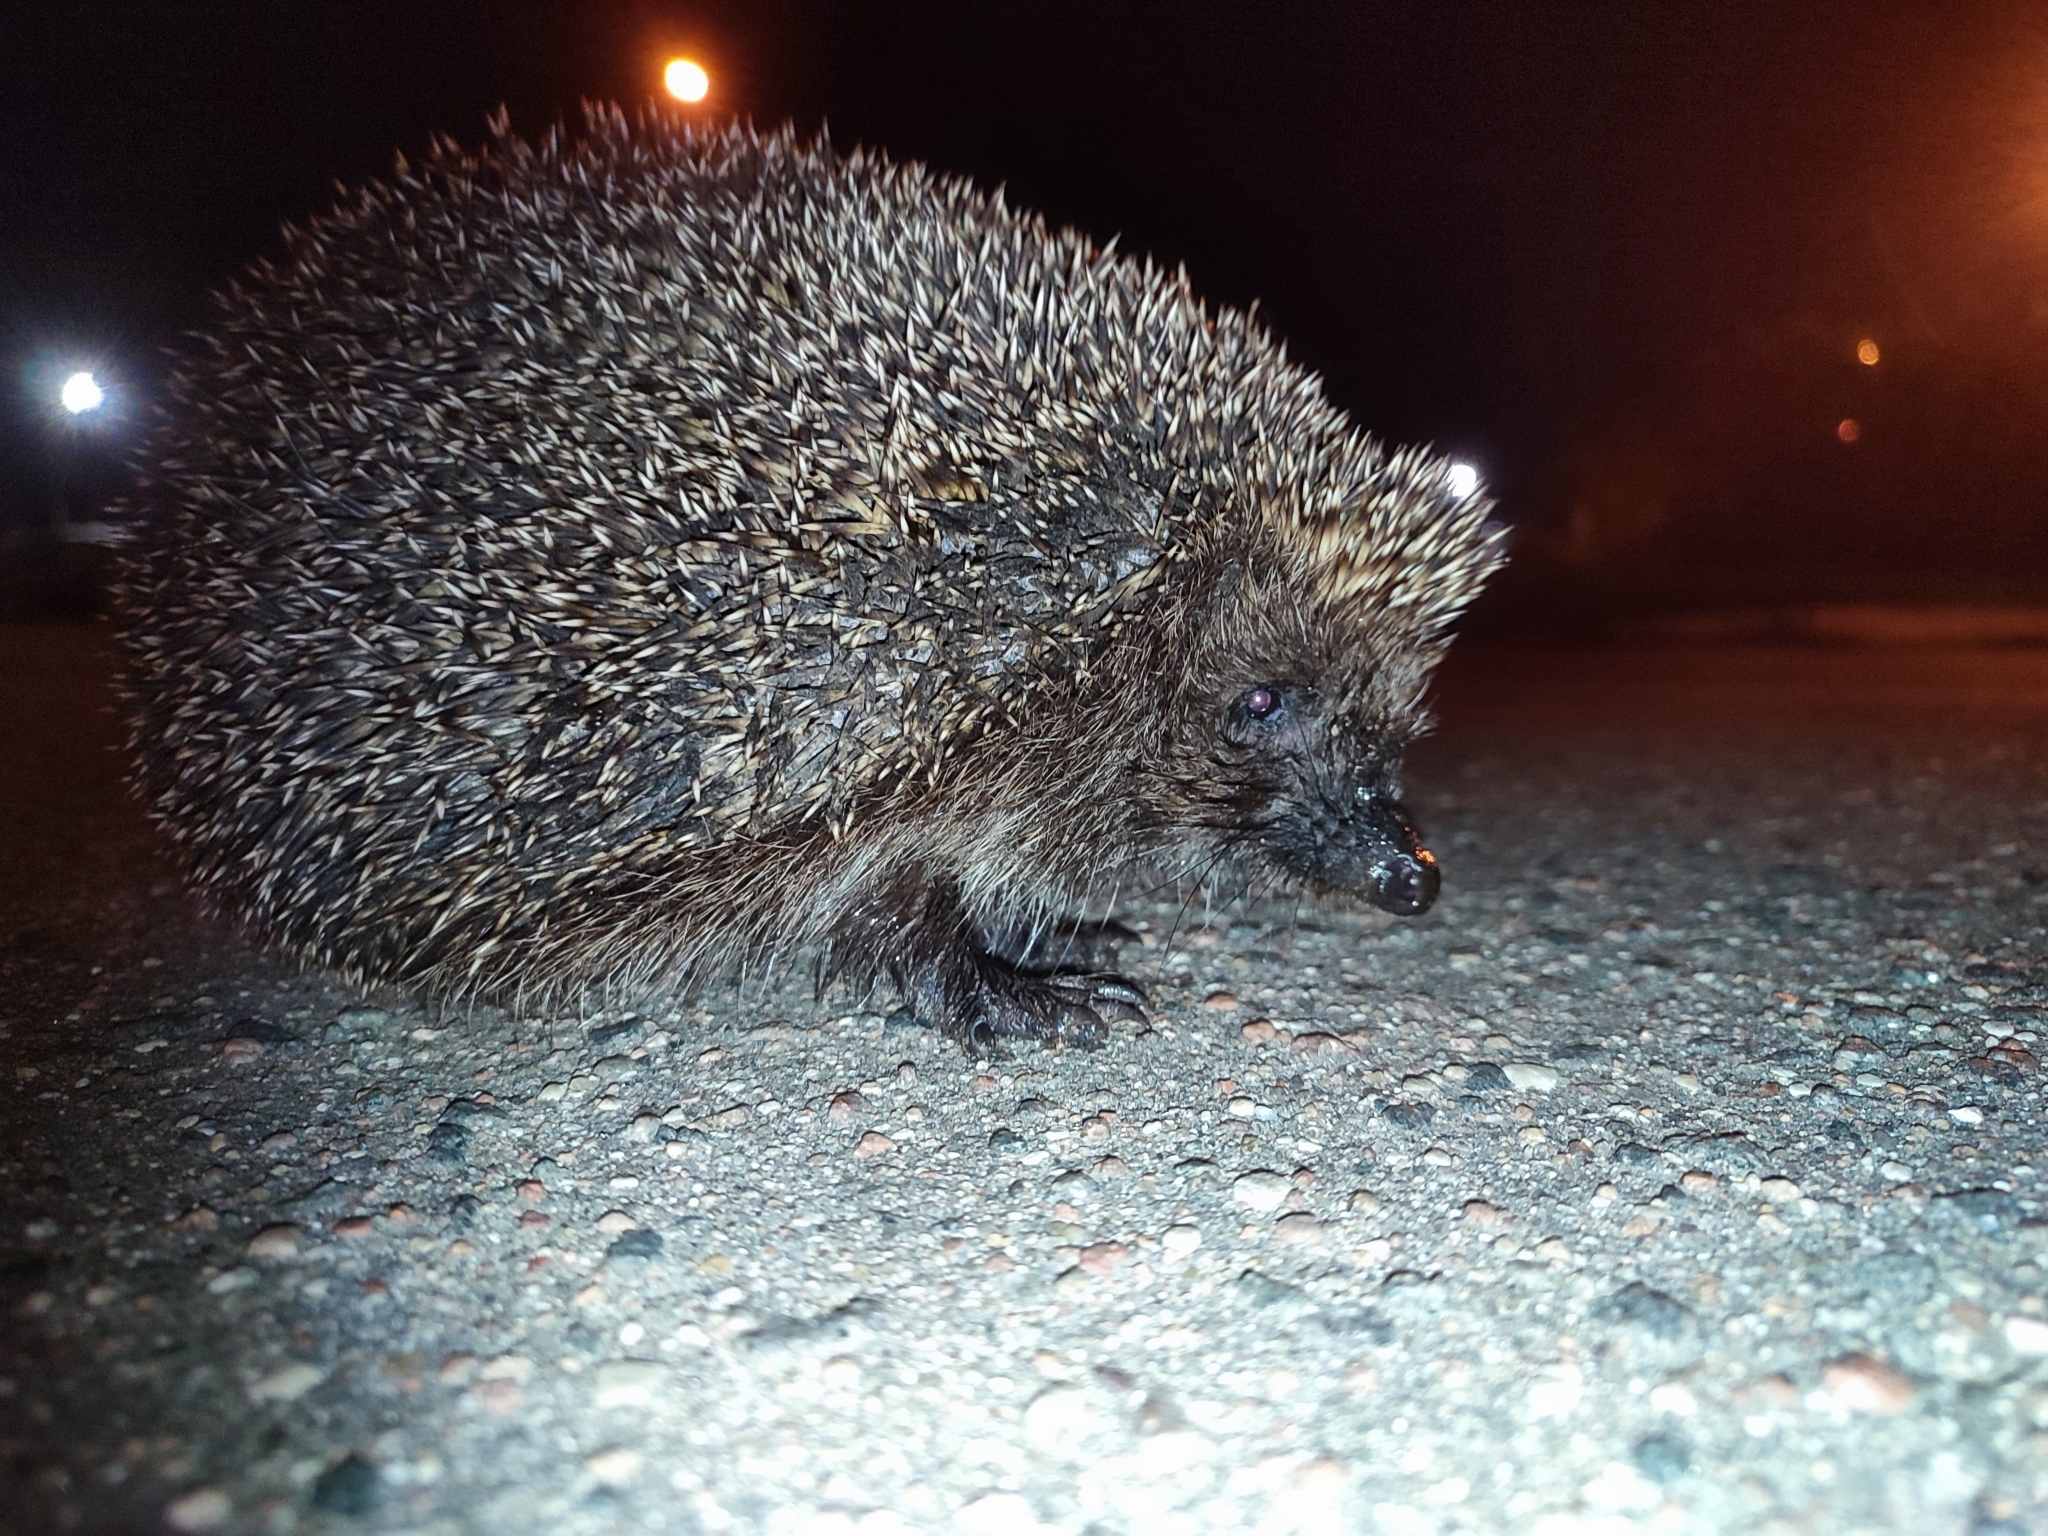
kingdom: Animalia
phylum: Chordata
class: Mammalia
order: Erinaceomorpha
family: Erinaceidae
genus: Erinaceus
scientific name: Erinaceus roumanicus
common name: Northern white-breasted hedgehog
